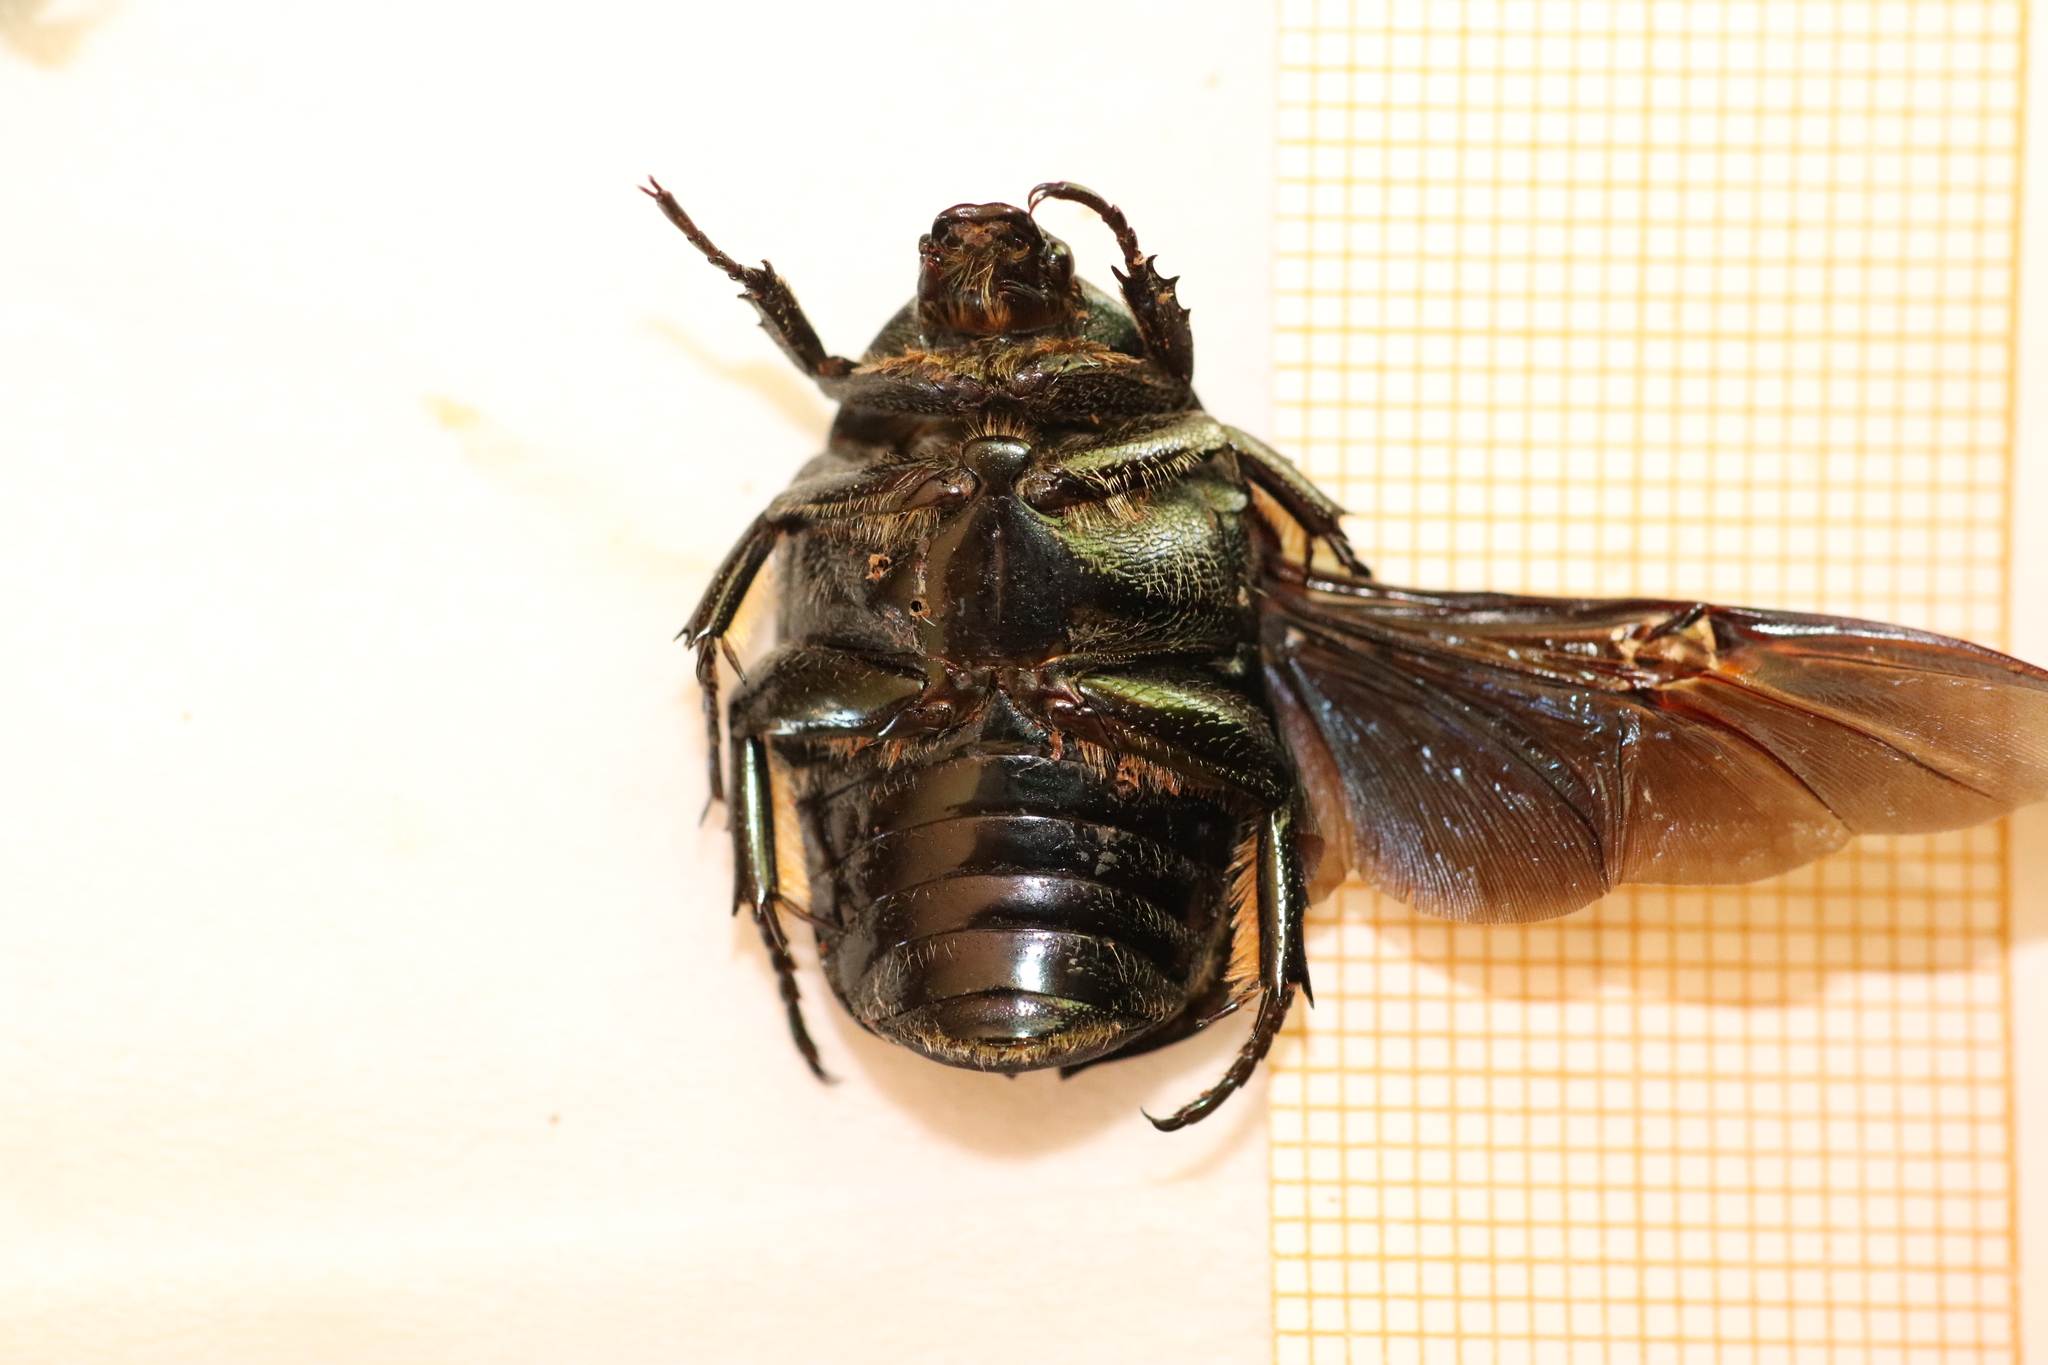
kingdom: Animalia
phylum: Arthropoda
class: Insecta
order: Coleoptera
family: Scarabaeidae
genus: Protaetia
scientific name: Protaetia opaca
